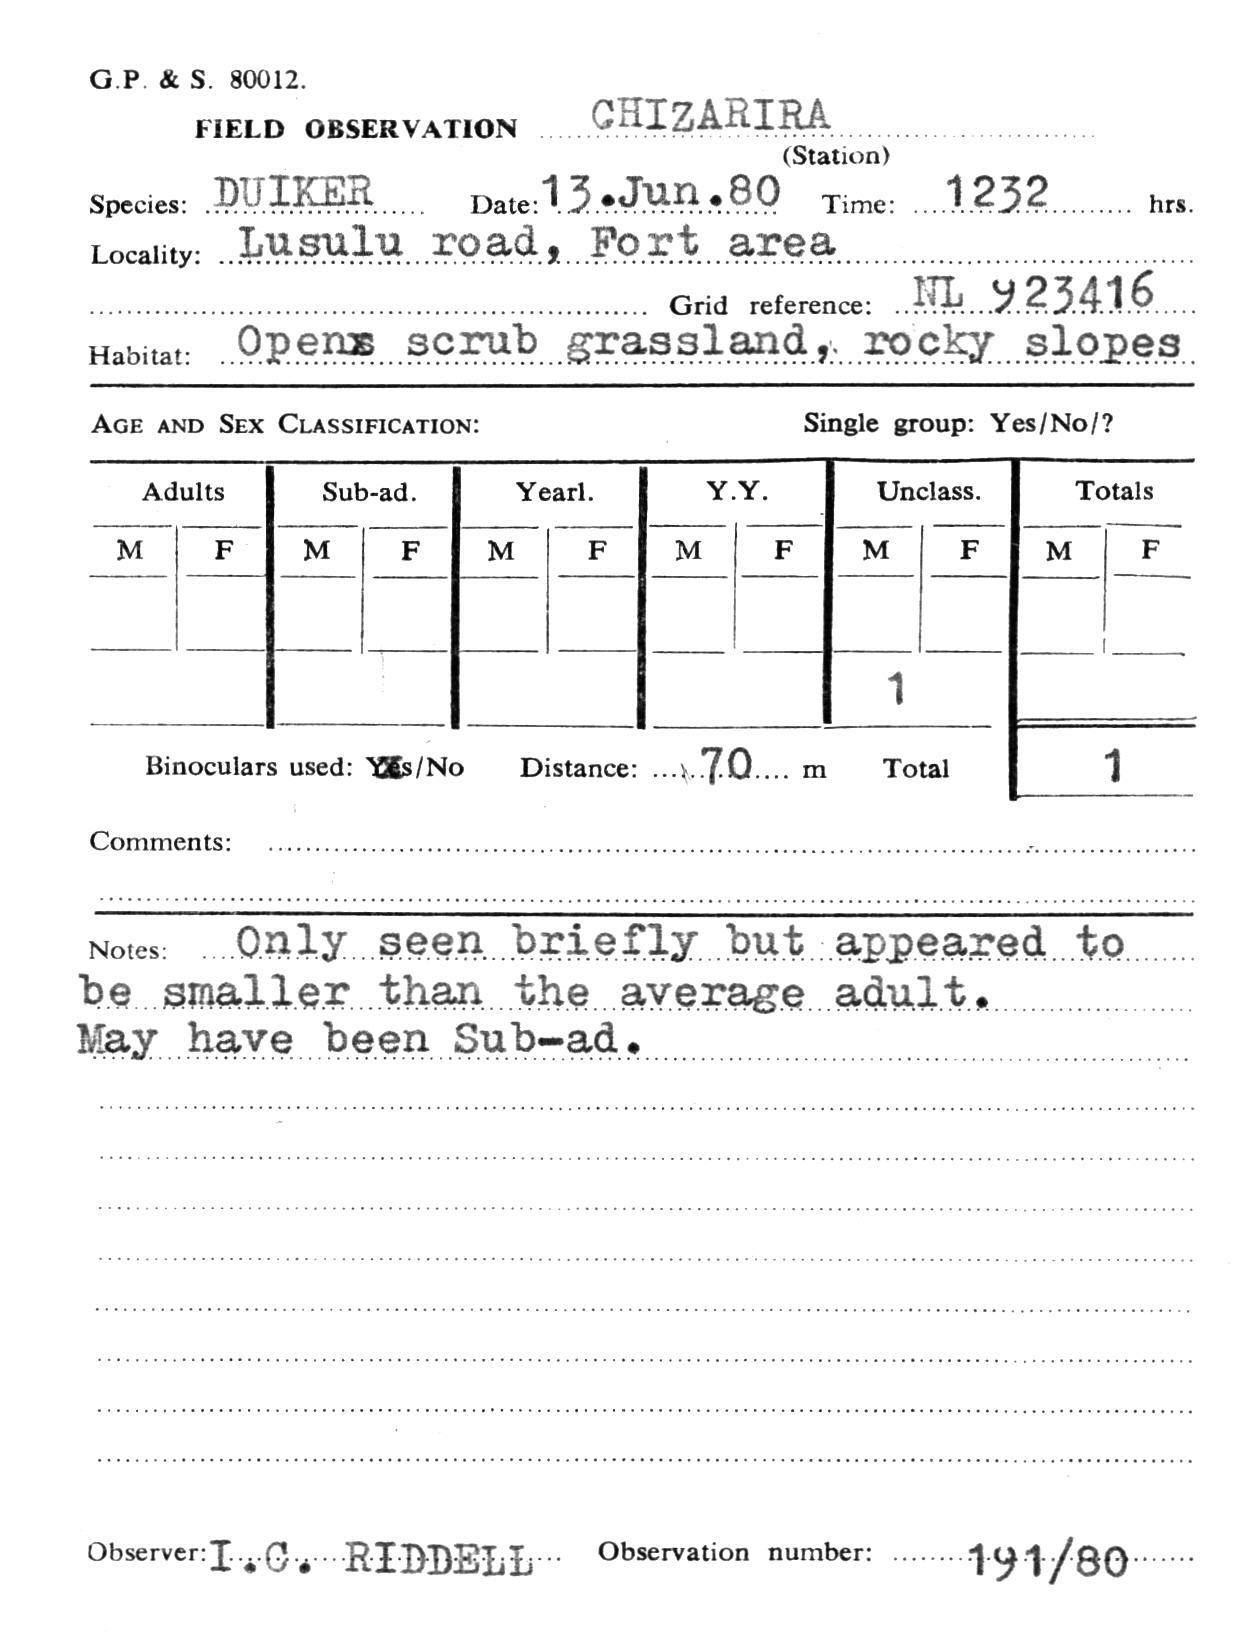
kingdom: Animalia
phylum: Chordata
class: Mammalia
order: Artiodactyla
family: Bovidae
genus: Sylvicapra
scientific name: Sylvicapra grimmia
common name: Bush duiker
